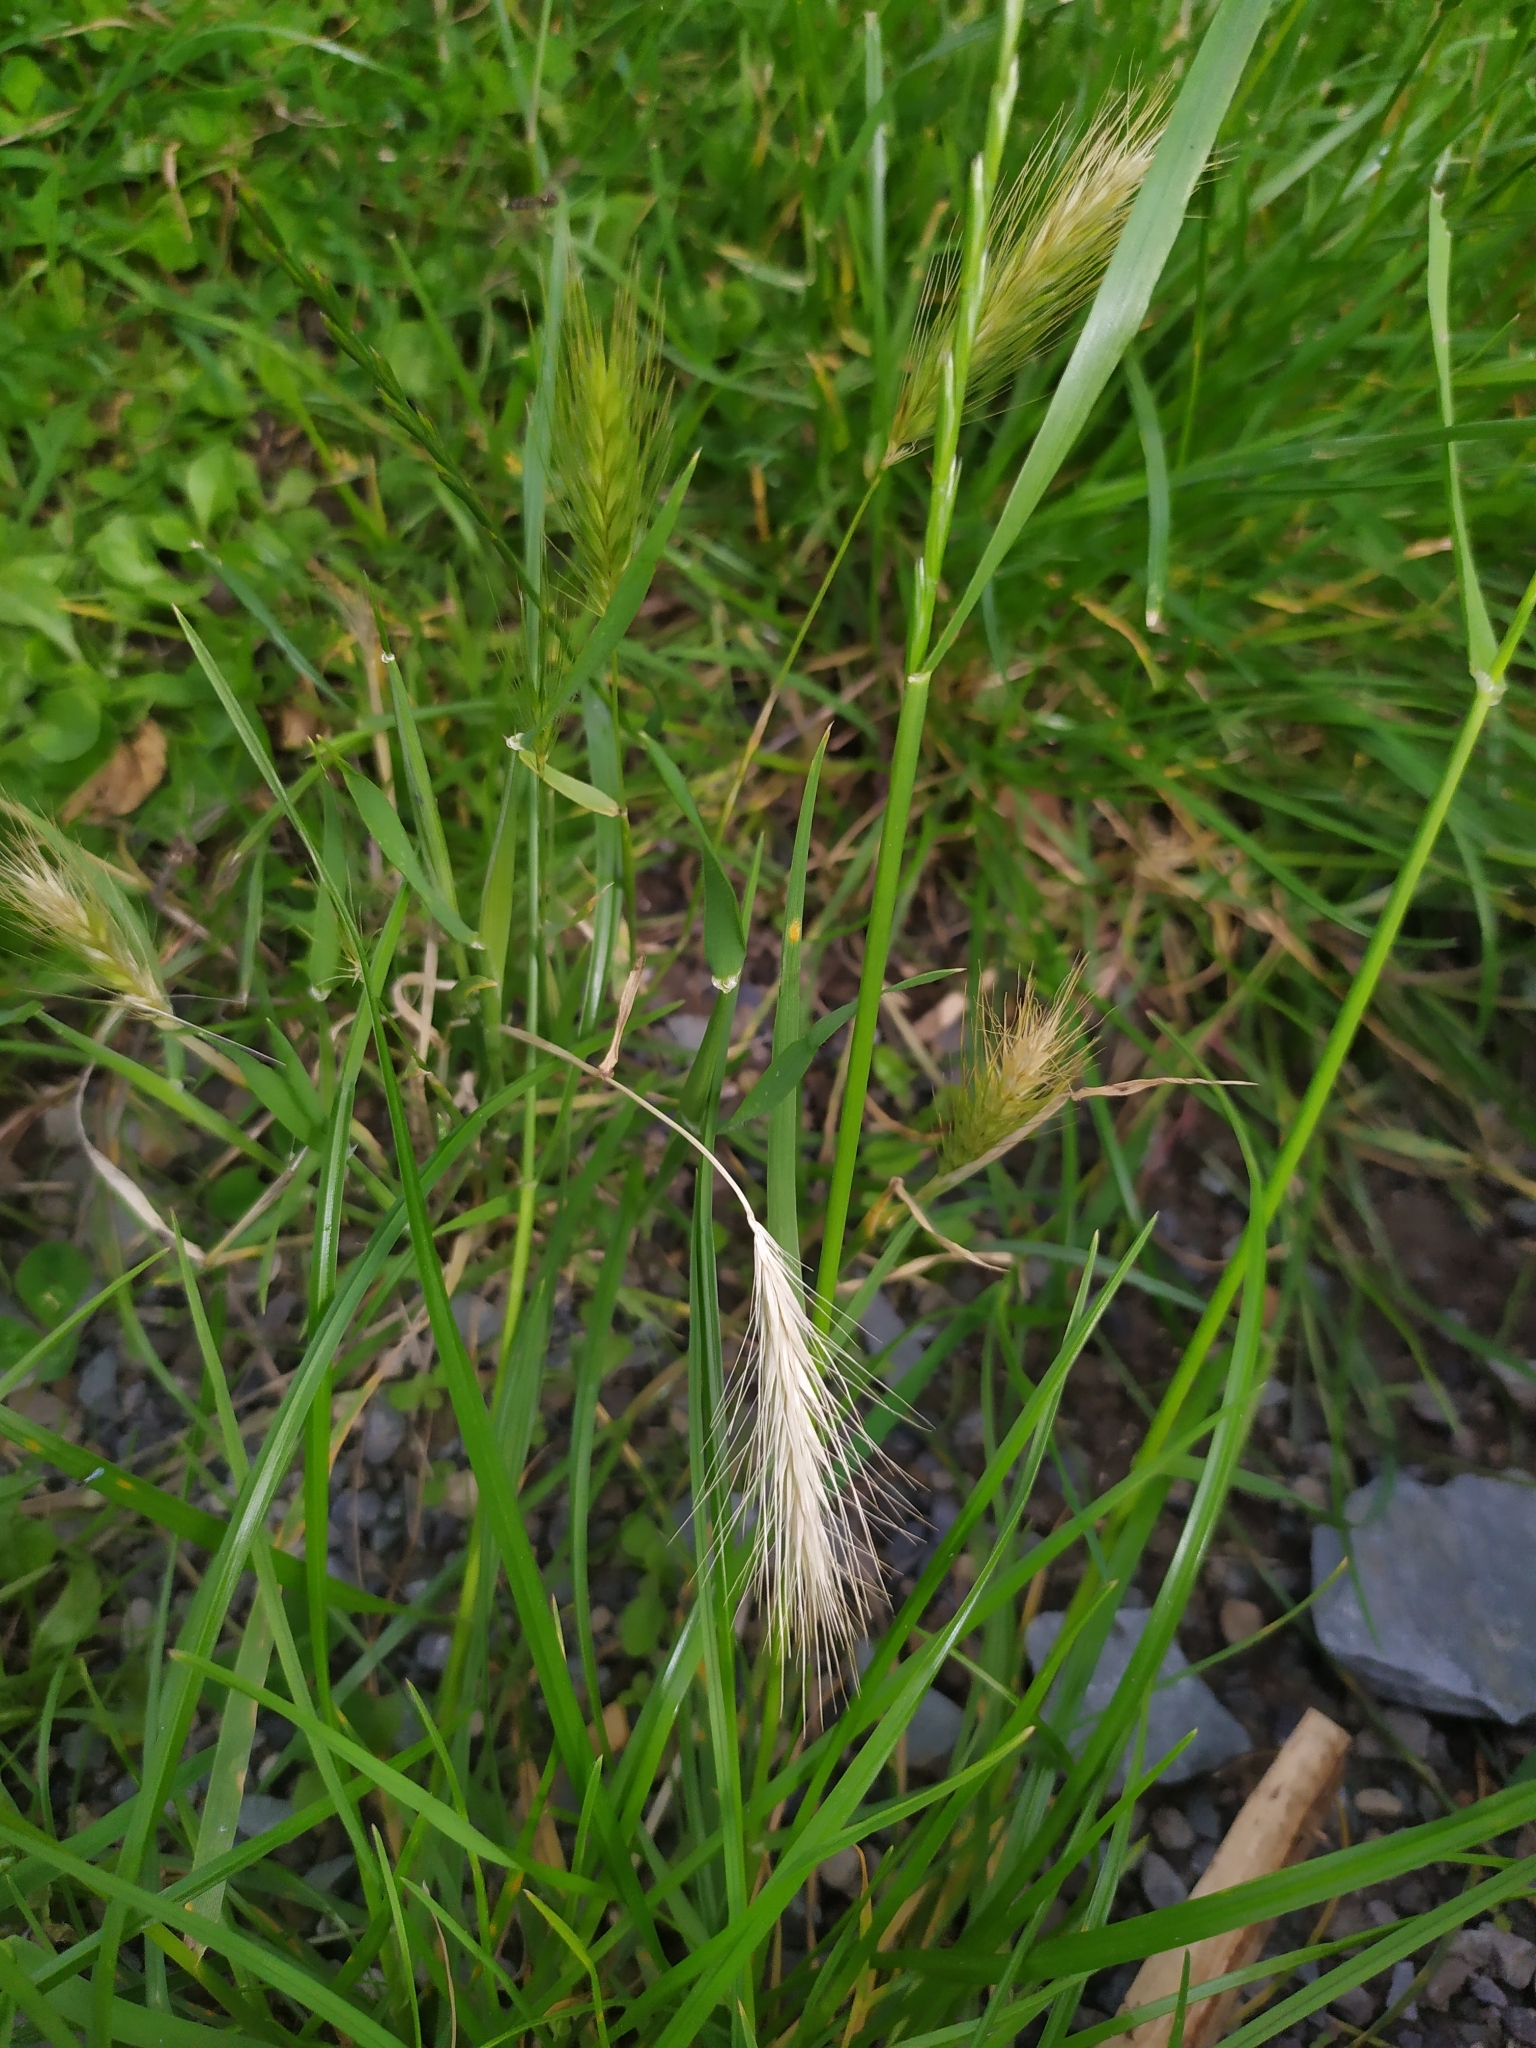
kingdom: Plantae
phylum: Tracheophyta
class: Liliopsida
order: Poales
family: Poaceae
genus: Hordeum
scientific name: Hordeum murinum
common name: Wall barley
